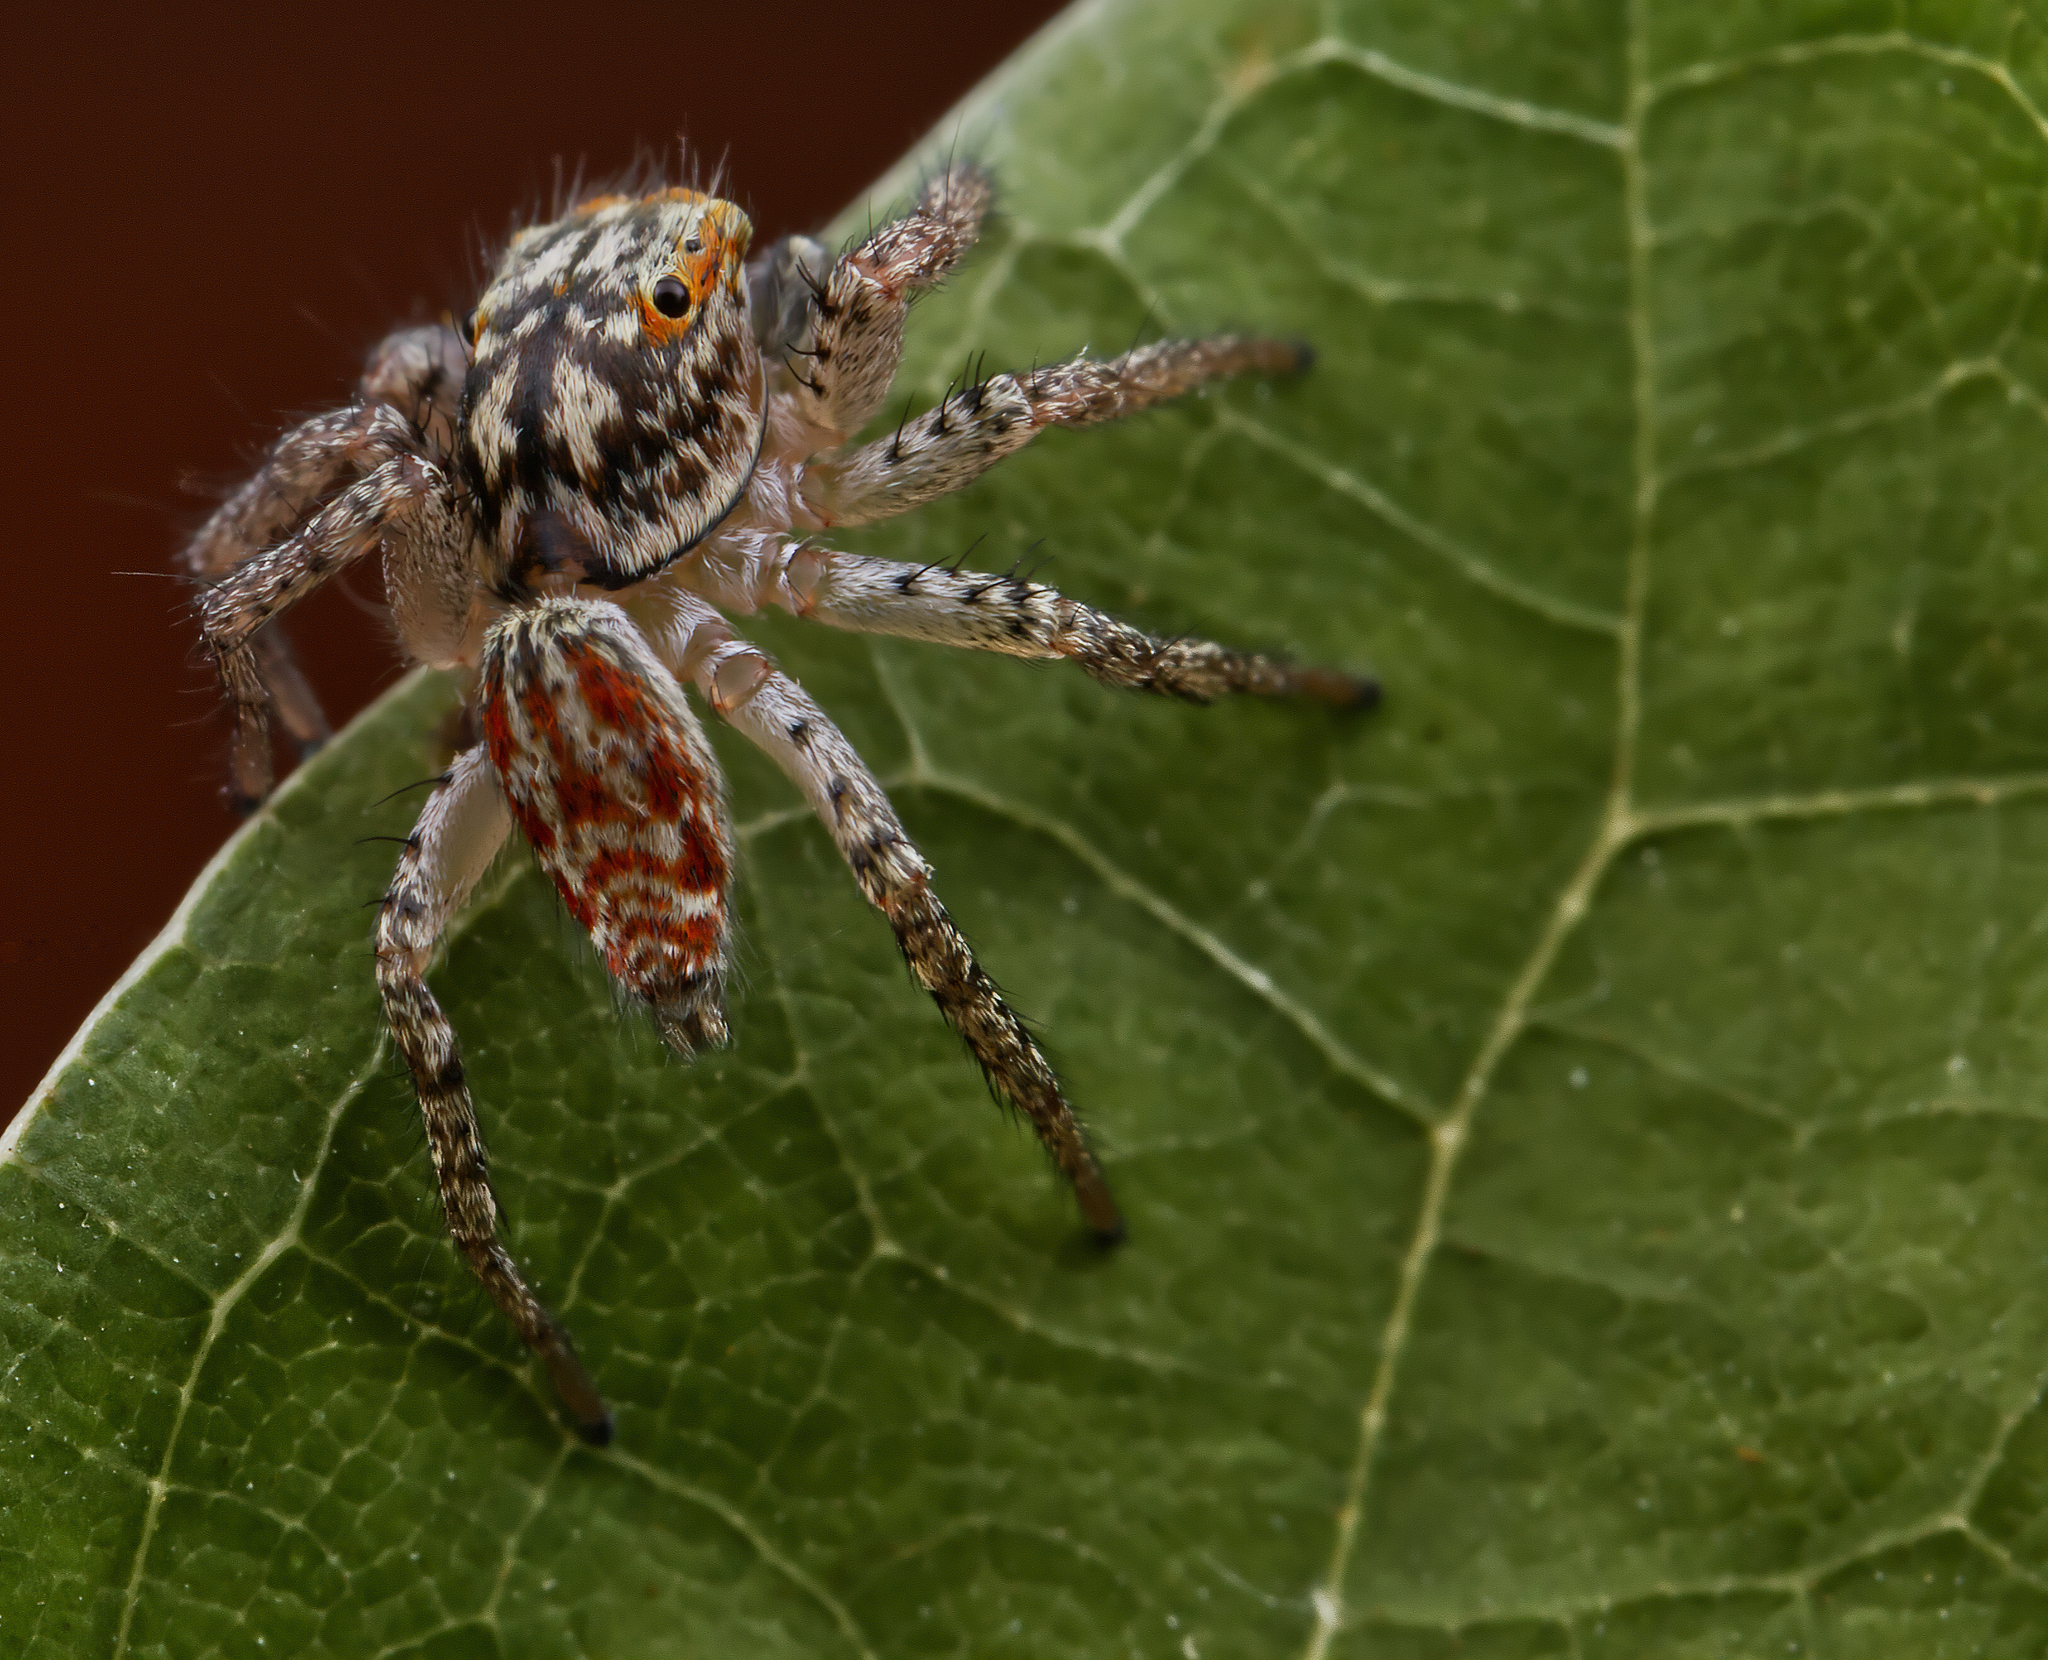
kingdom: Animalia
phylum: Arthropoda
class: Arachnida
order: Araneae
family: Salticidae
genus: Maevia
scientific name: Maevia inclemens
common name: Dimorphic jumper
